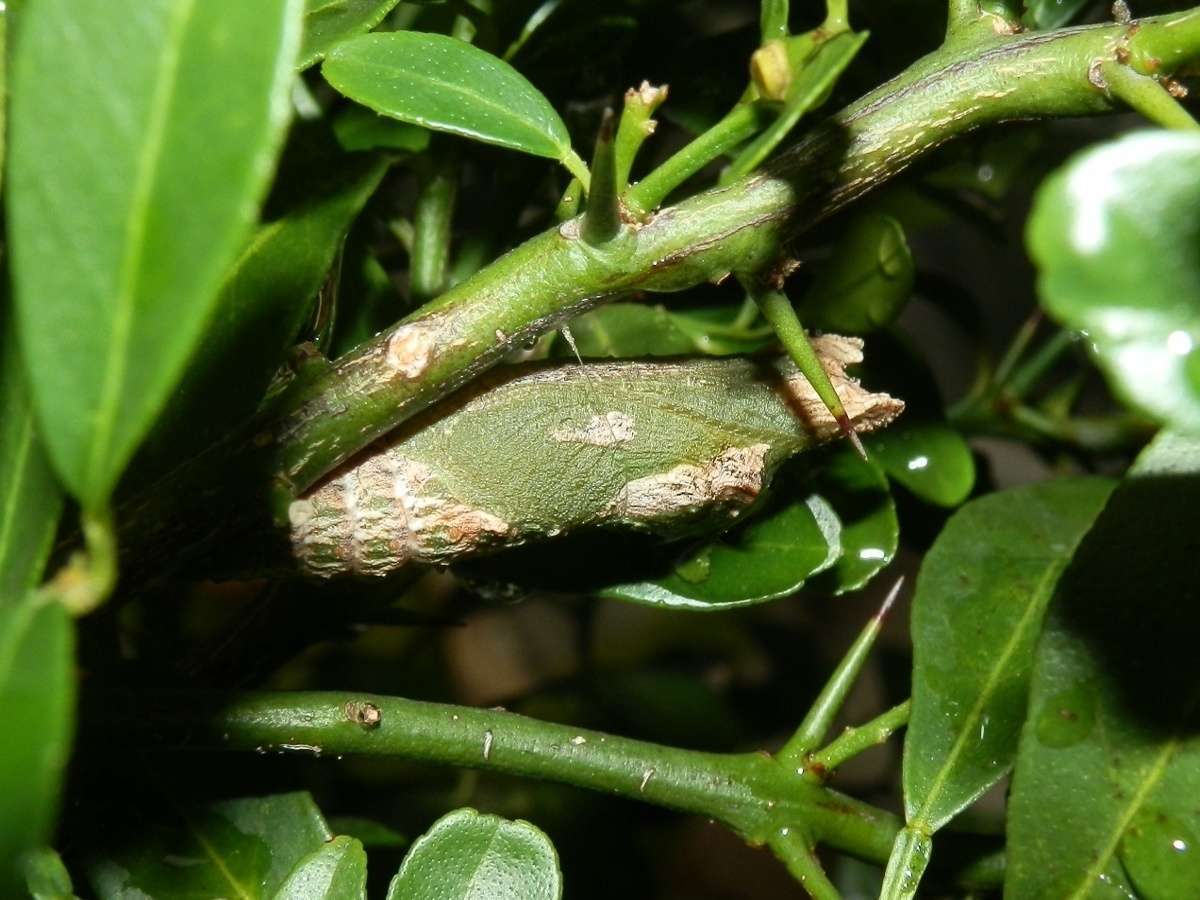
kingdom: Animalia
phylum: Arthropoda
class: Insecta
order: Lepidoptera
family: Papilionidae
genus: Papilio
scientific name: Papilio anactus
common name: Dingy swallowtail
